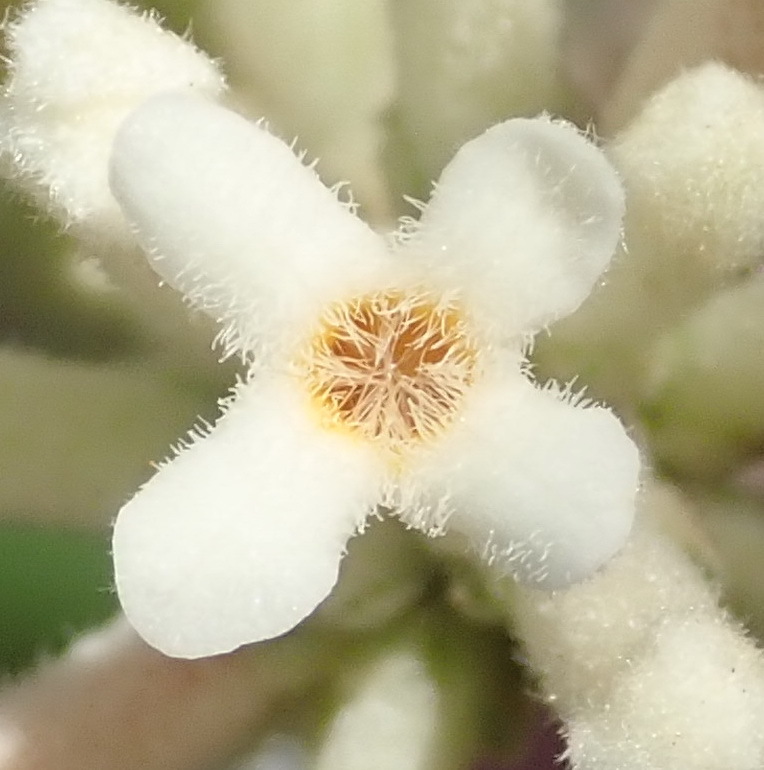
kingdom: Plantae
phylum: Tracheophyta
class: Magnoliopsida
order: Lamiales
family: Scrophulariaceae
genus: Buddleja
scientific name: Buddleja salviifolia
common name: Sagewood
